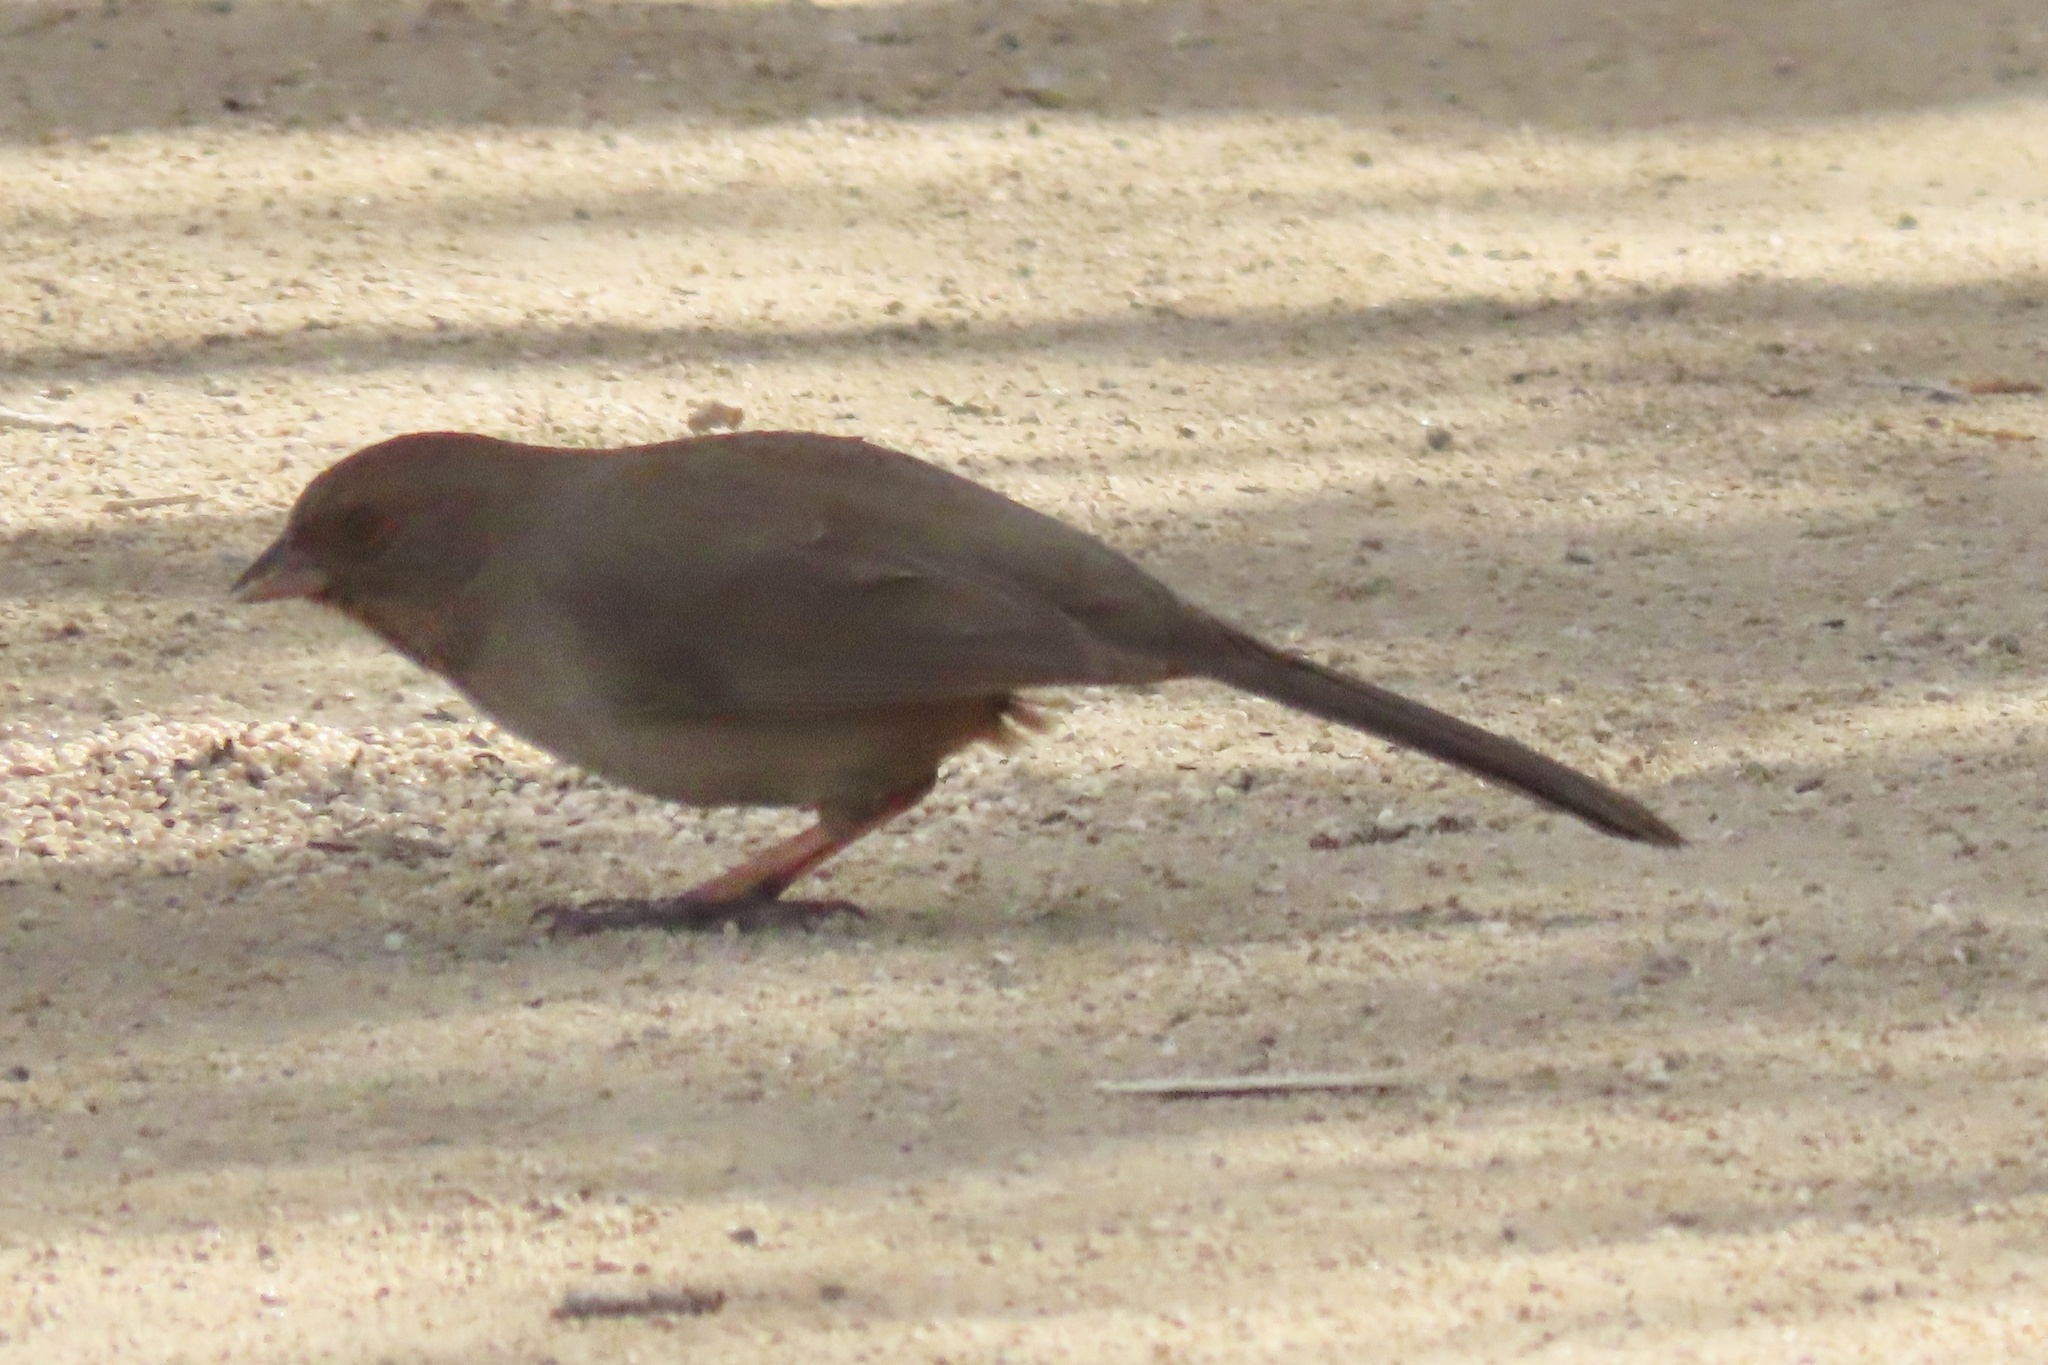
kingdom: Animalia
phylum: Chordata
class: Aves
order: Passeriformes
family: Passerellidae
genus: Melozone
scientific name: Melozone crissalis
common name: California towhee
